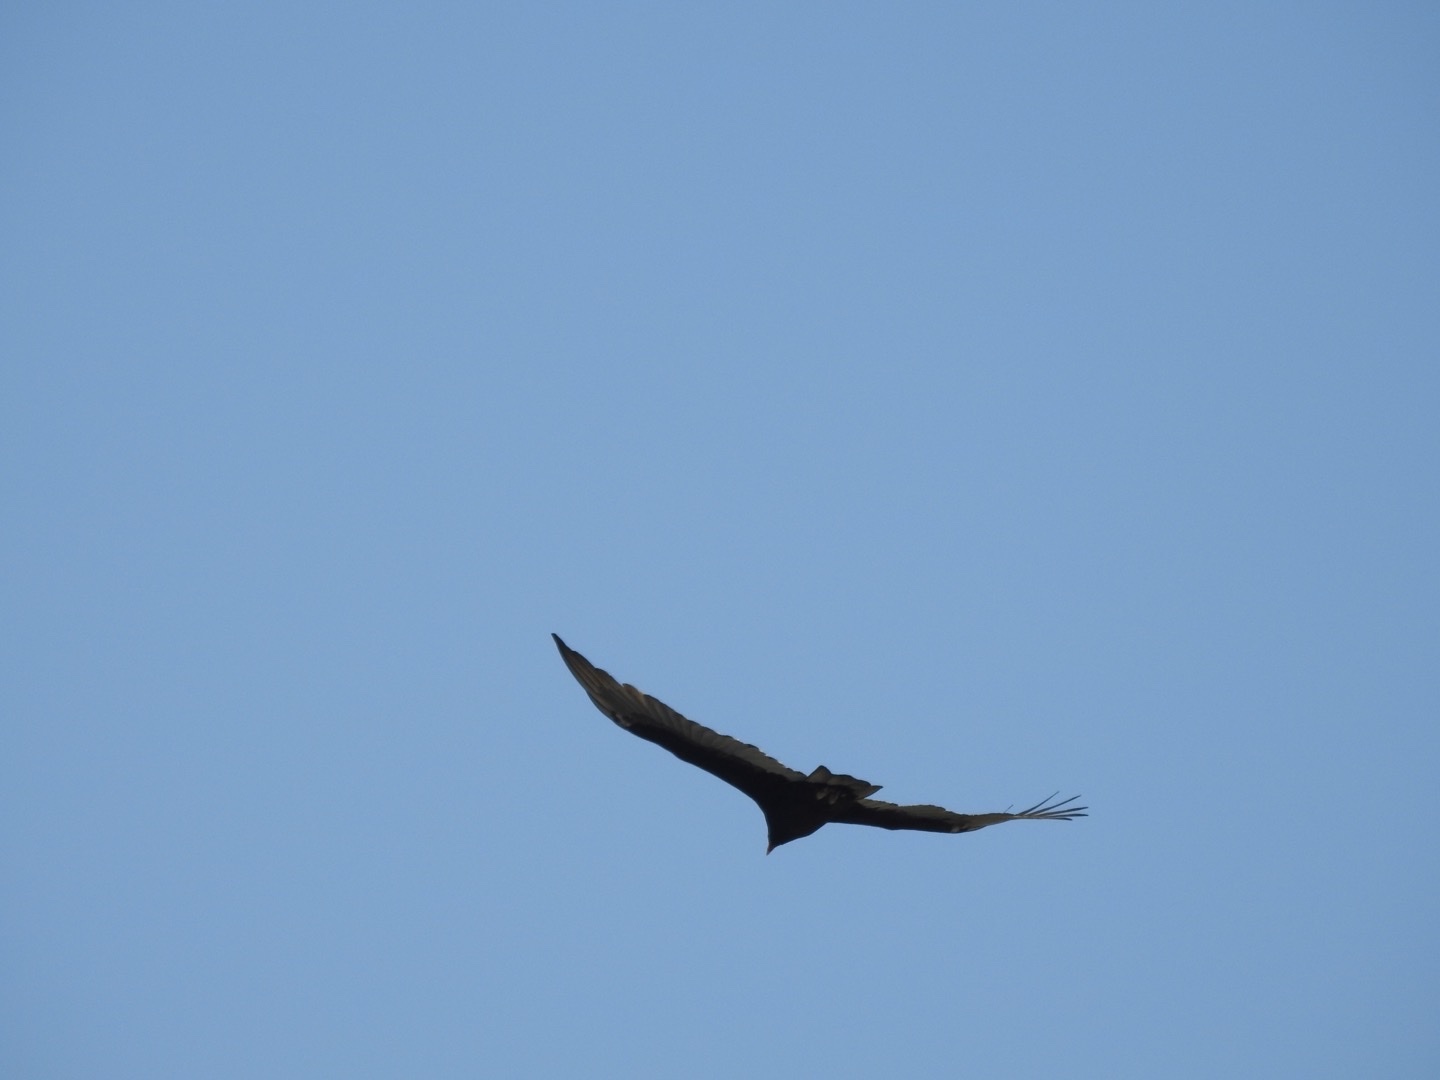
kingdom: Animalia
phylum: Chordata
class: Aves
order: Accipitriformes
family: Cathartidae
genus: Cathartes
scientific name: Cathartes aura
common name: Turkey vulture
